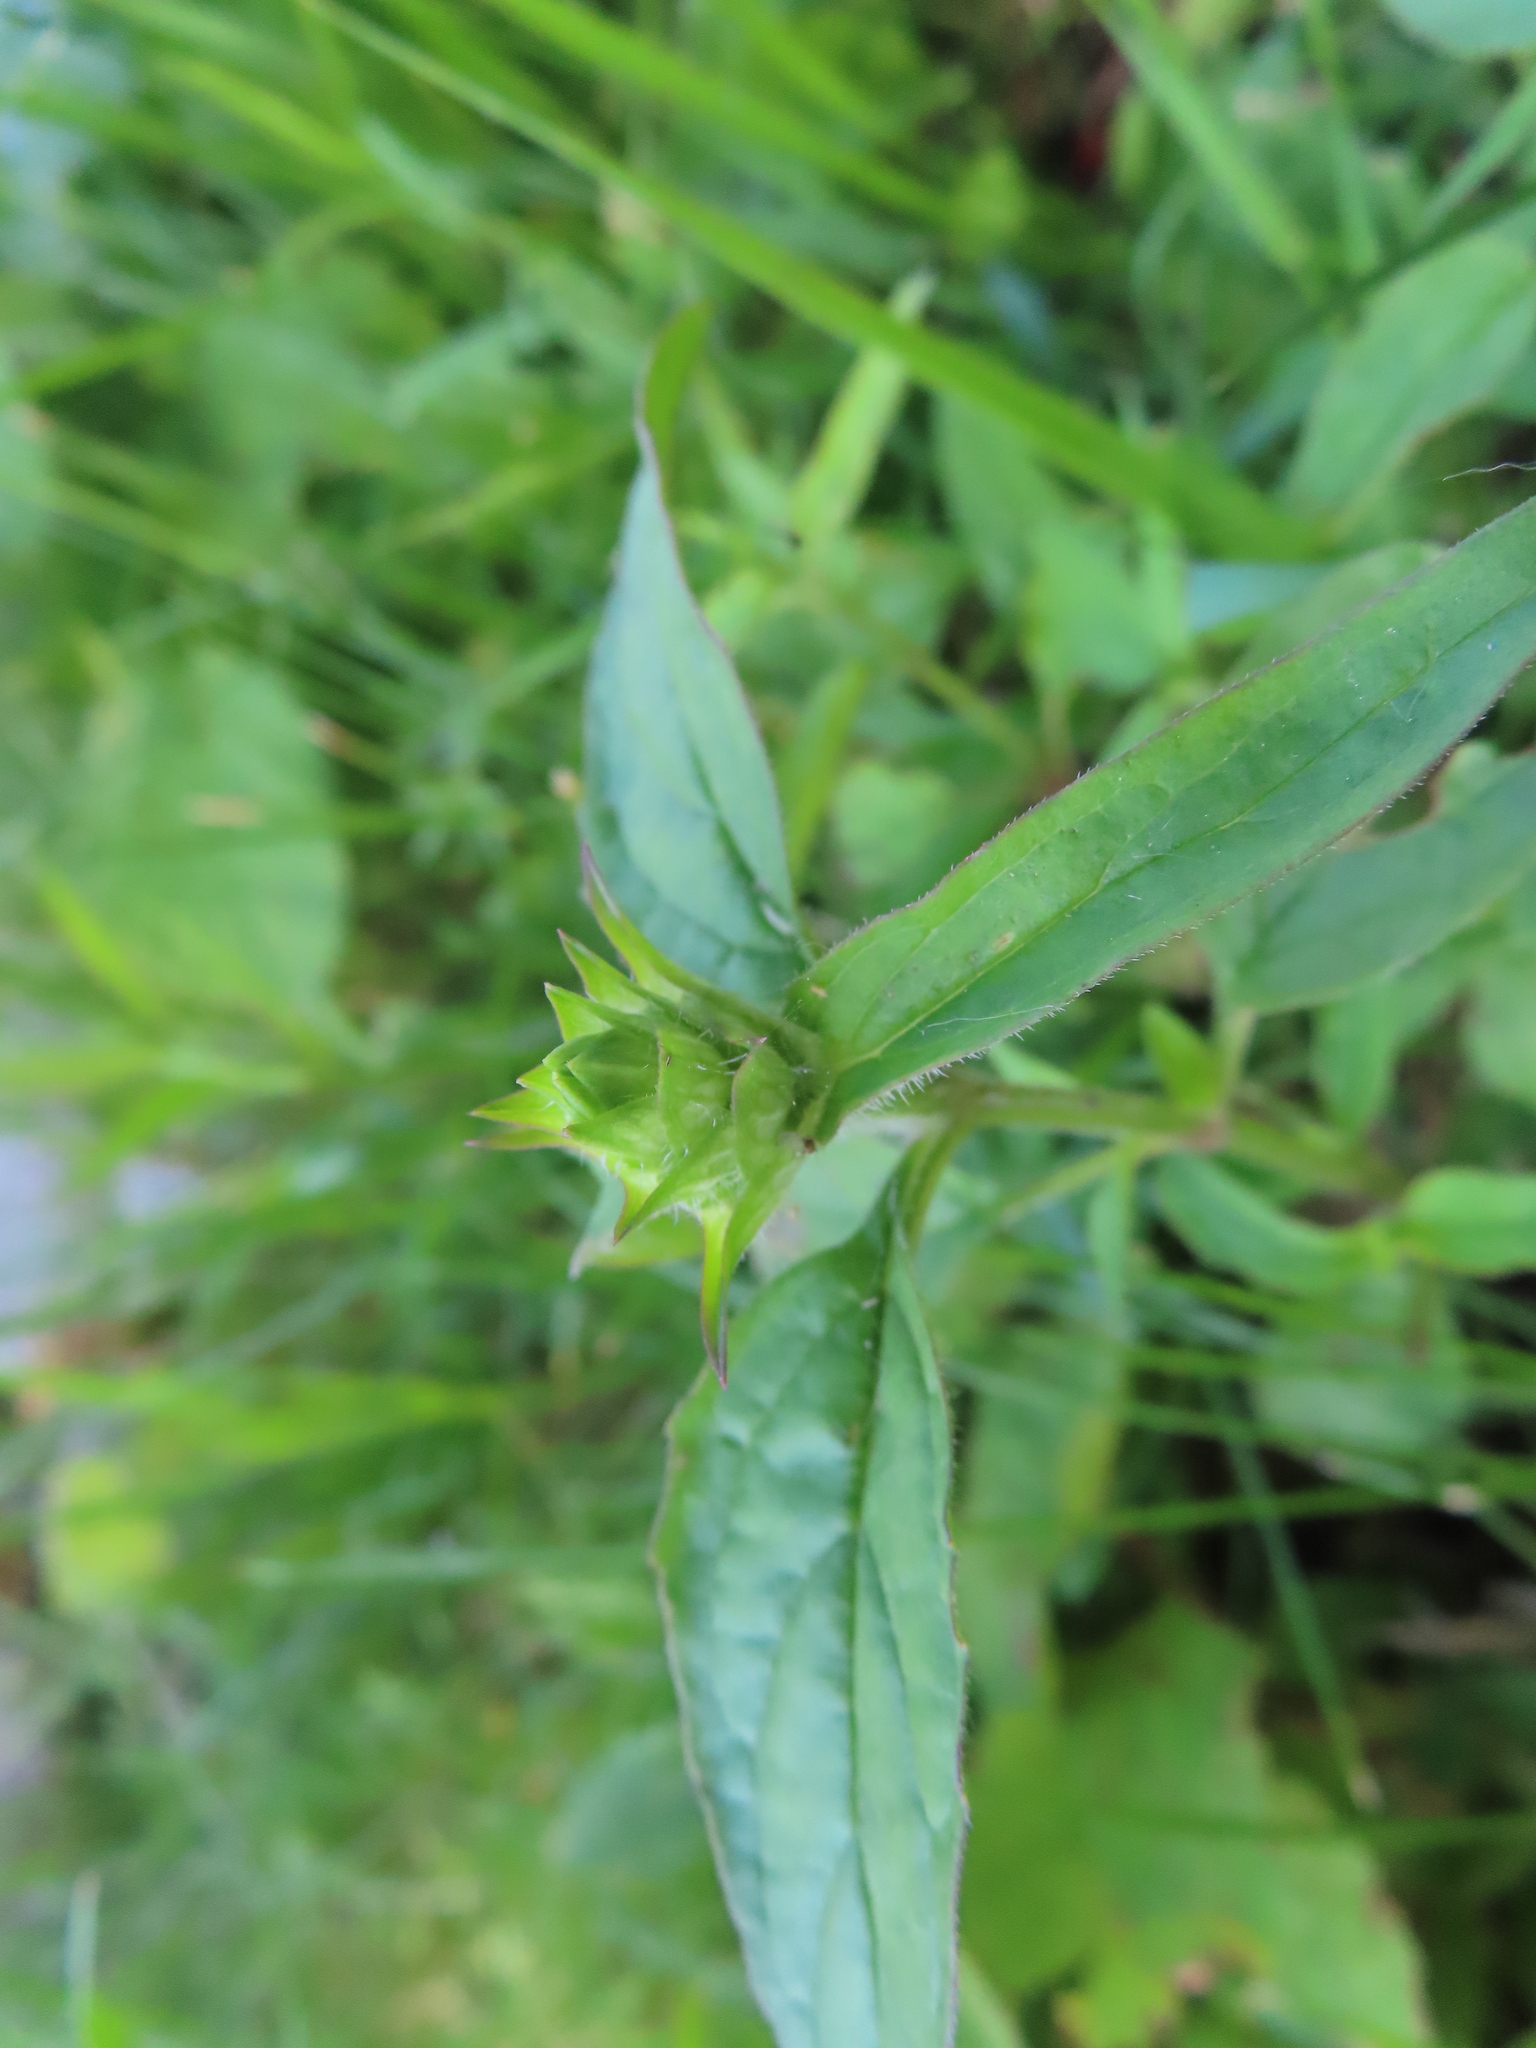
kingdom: Plantae
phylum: Tracheophyta
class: Magnoliopsida
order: Lamiales
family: Lamiaceae
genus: Prunella
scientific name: Prunella vulgaris
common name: Heal-all
